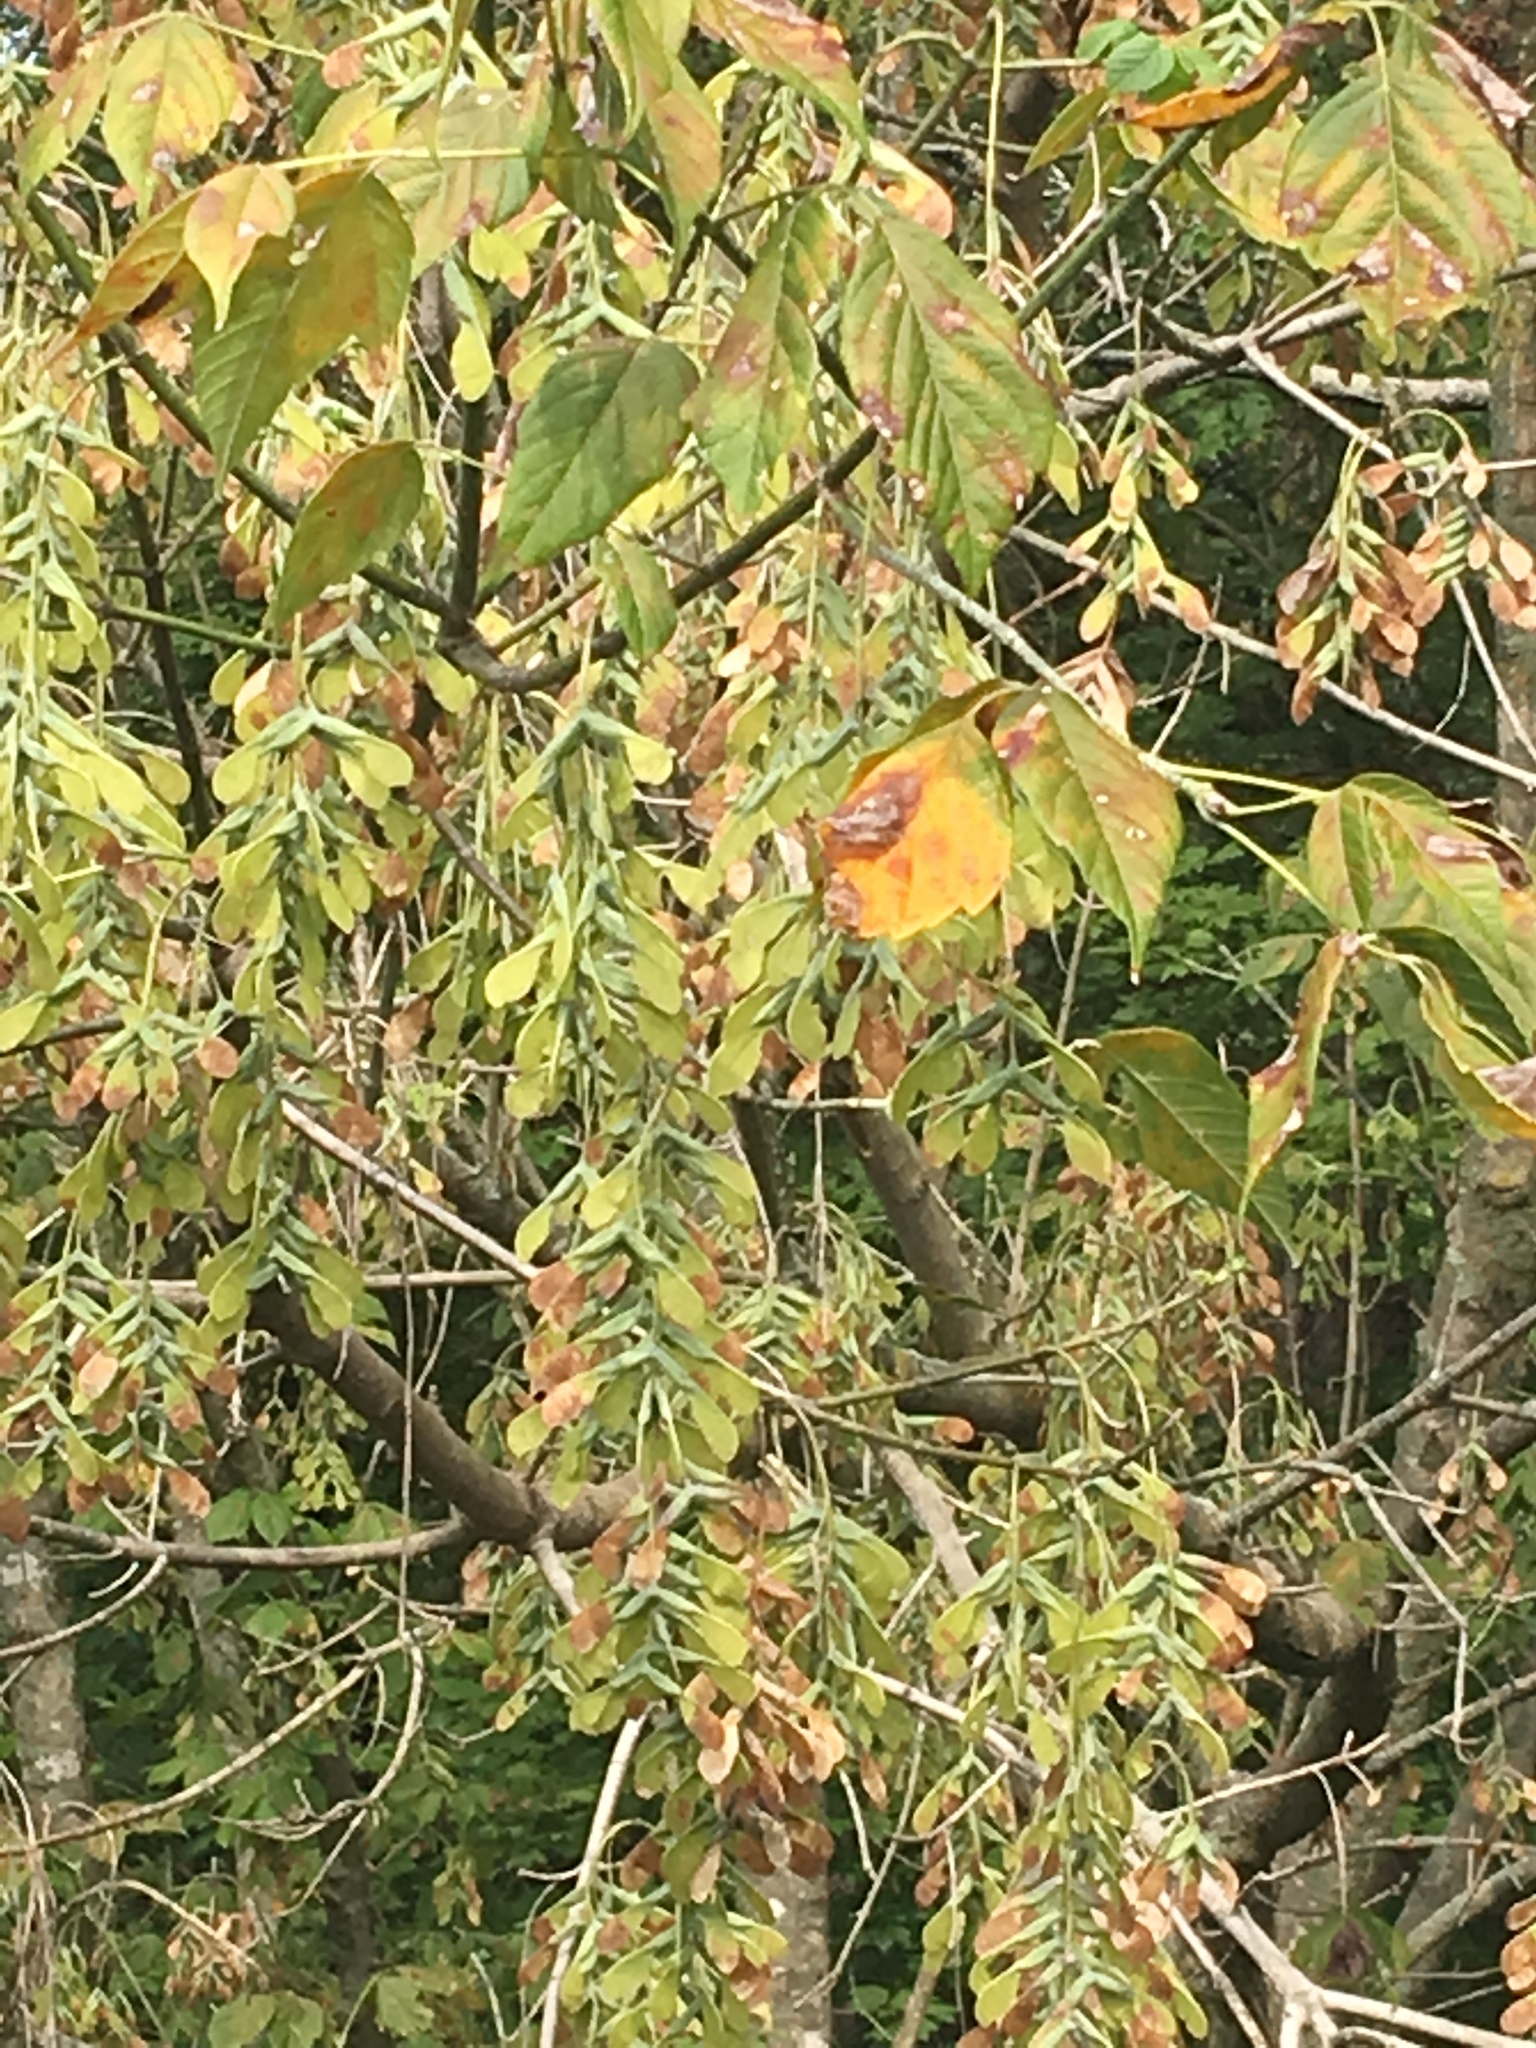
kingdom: Plantae
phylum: Tracheophyta
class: Magnoliopsida
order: Sapindales
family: Sapindaceae
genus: Acer
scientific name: Acer negundo
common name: Ashleaf maple
